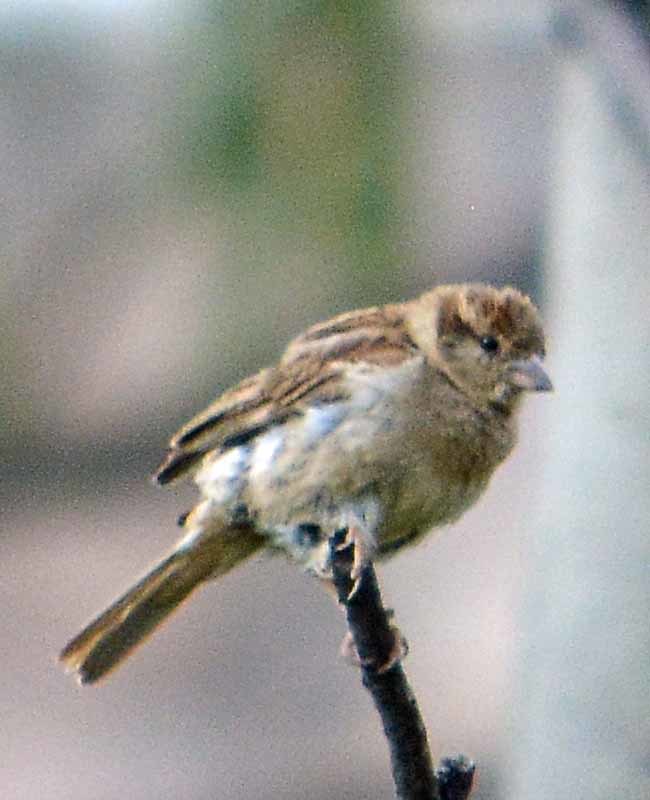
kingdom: Animalia
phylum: Chordata
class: Aves
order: Passeriformes
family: Passeridae
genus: Passer
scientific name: Passer domesticus
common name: House sparrow
